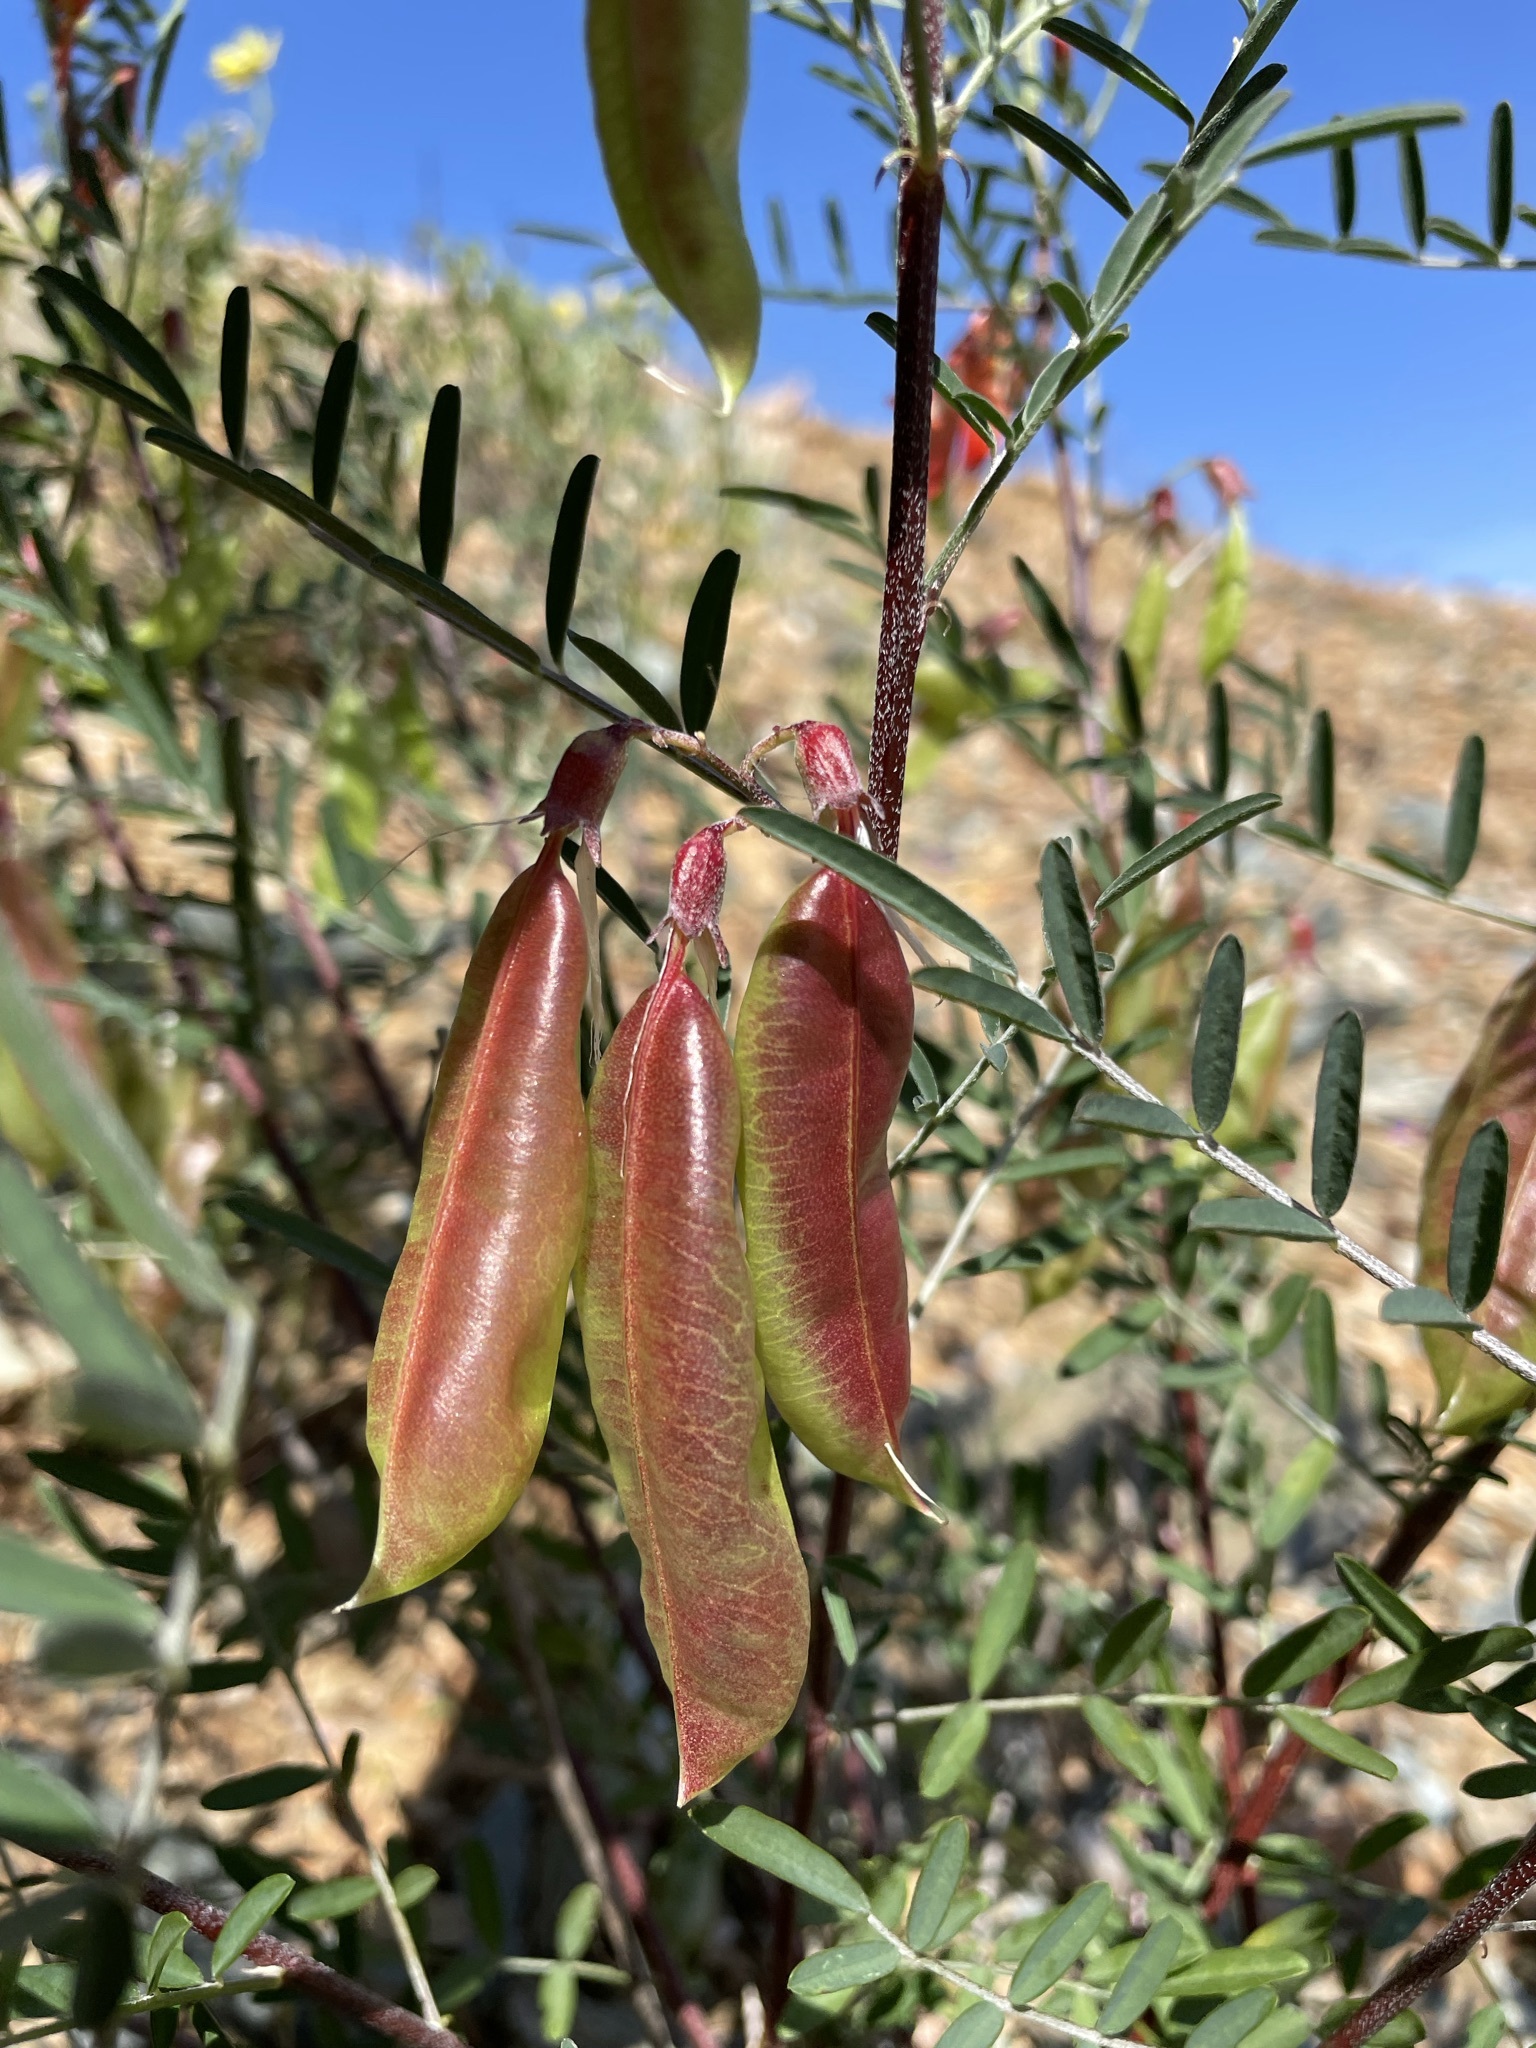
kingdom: Plantae
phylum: Tracheophyta
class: Magnoliopsida
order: Fabales
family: Fabaceae
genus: Lessertia
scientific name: Lessertia frutescens
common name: Balloon-pea
